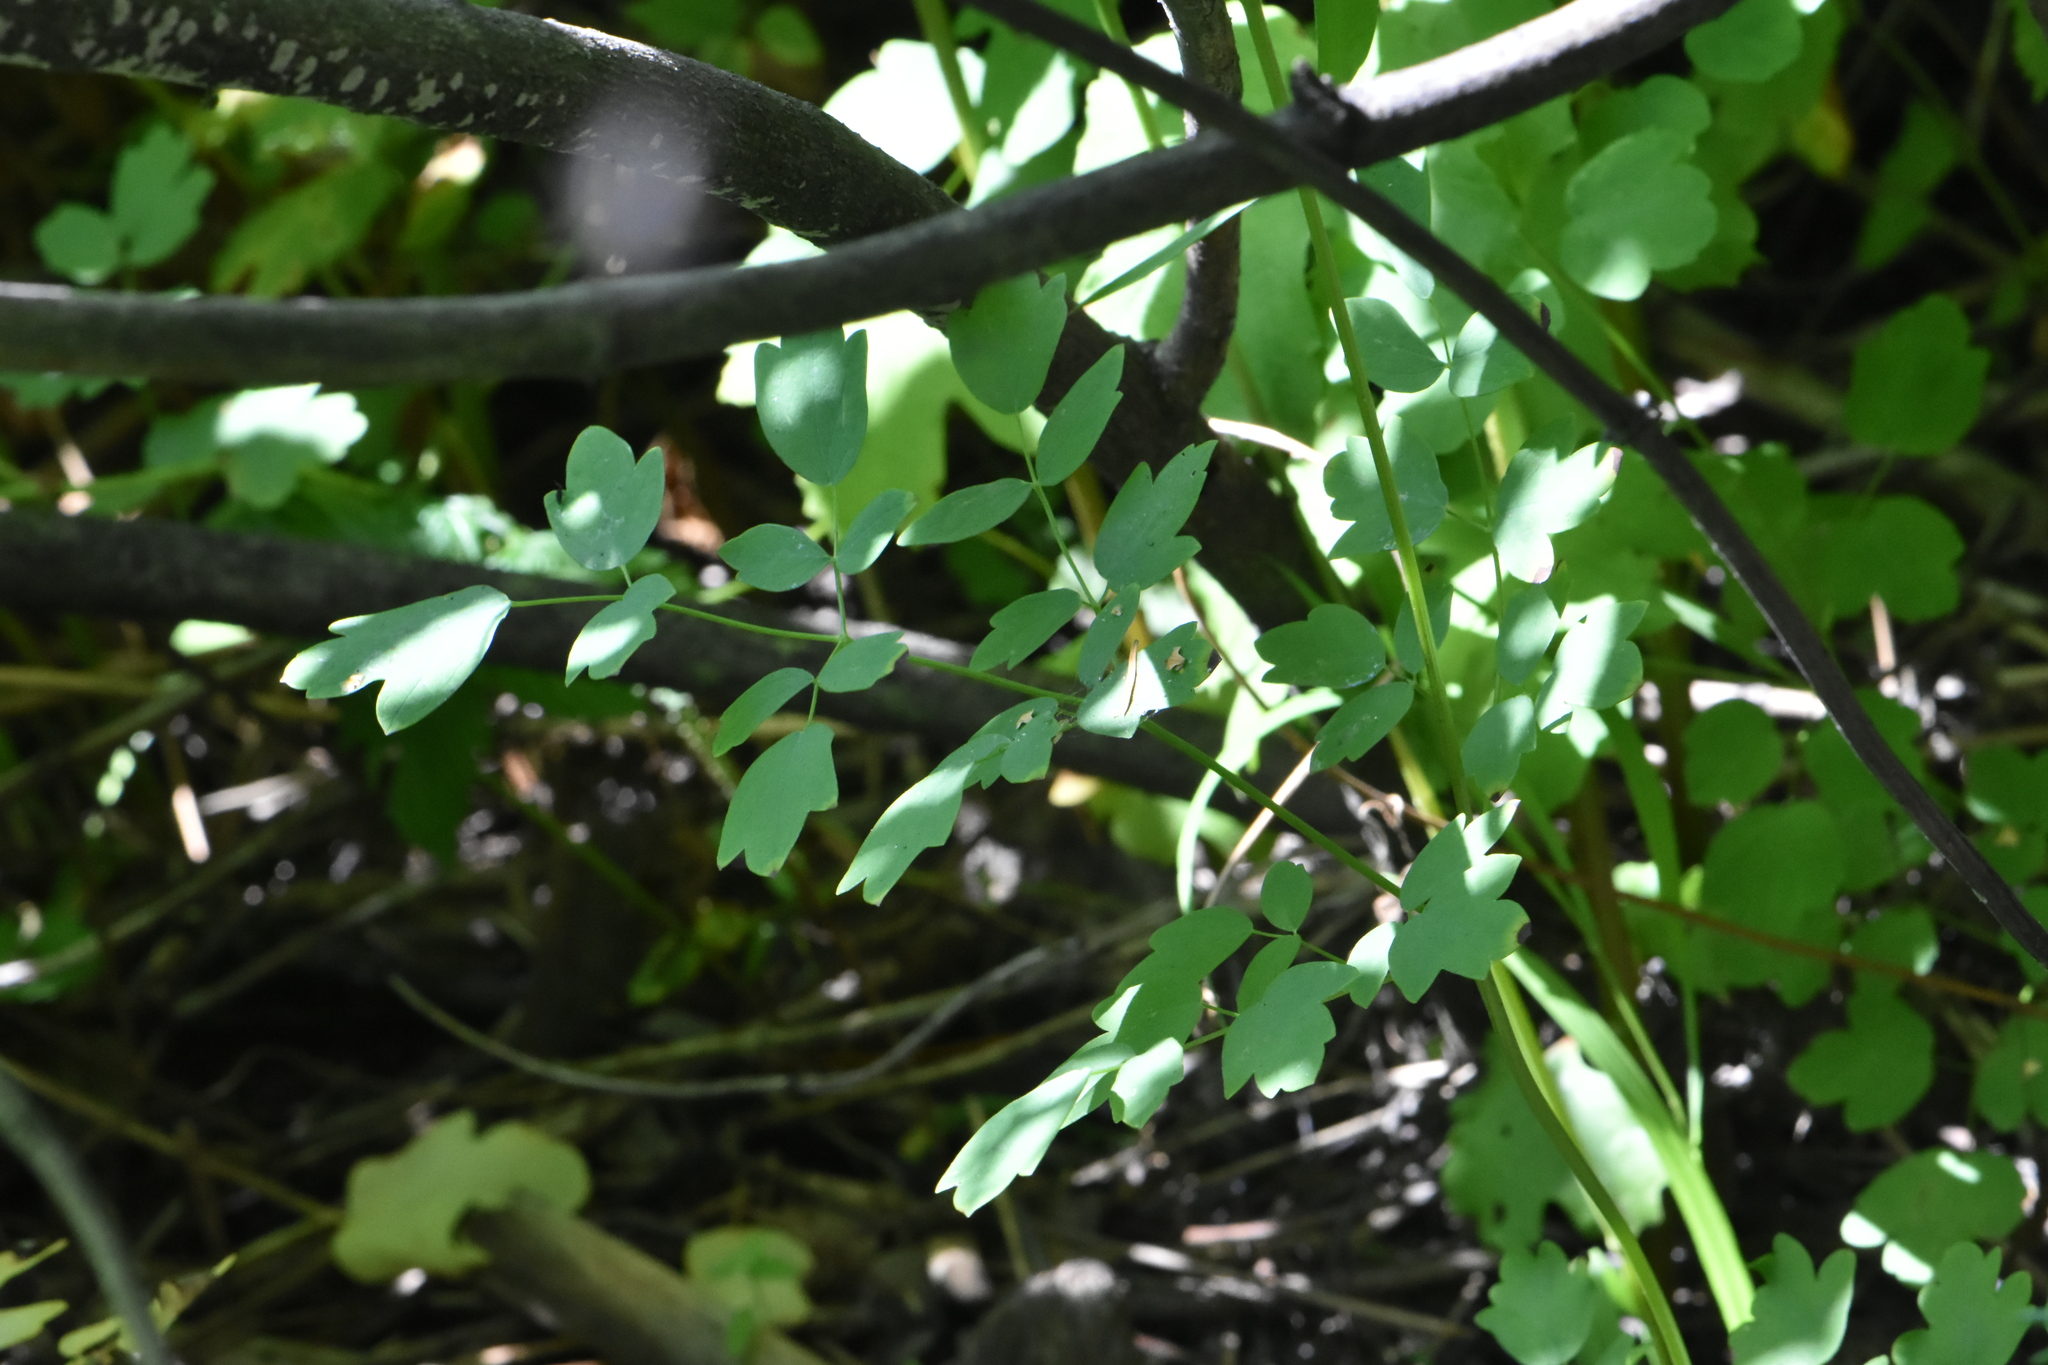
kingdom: Plantae
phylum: Tracheophyta
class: Magnoliopsida
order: Ranunculales
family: Ranunculaceae
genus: Thalictrum
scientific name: Thalictrum minus
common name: Lesser meadow-rue
